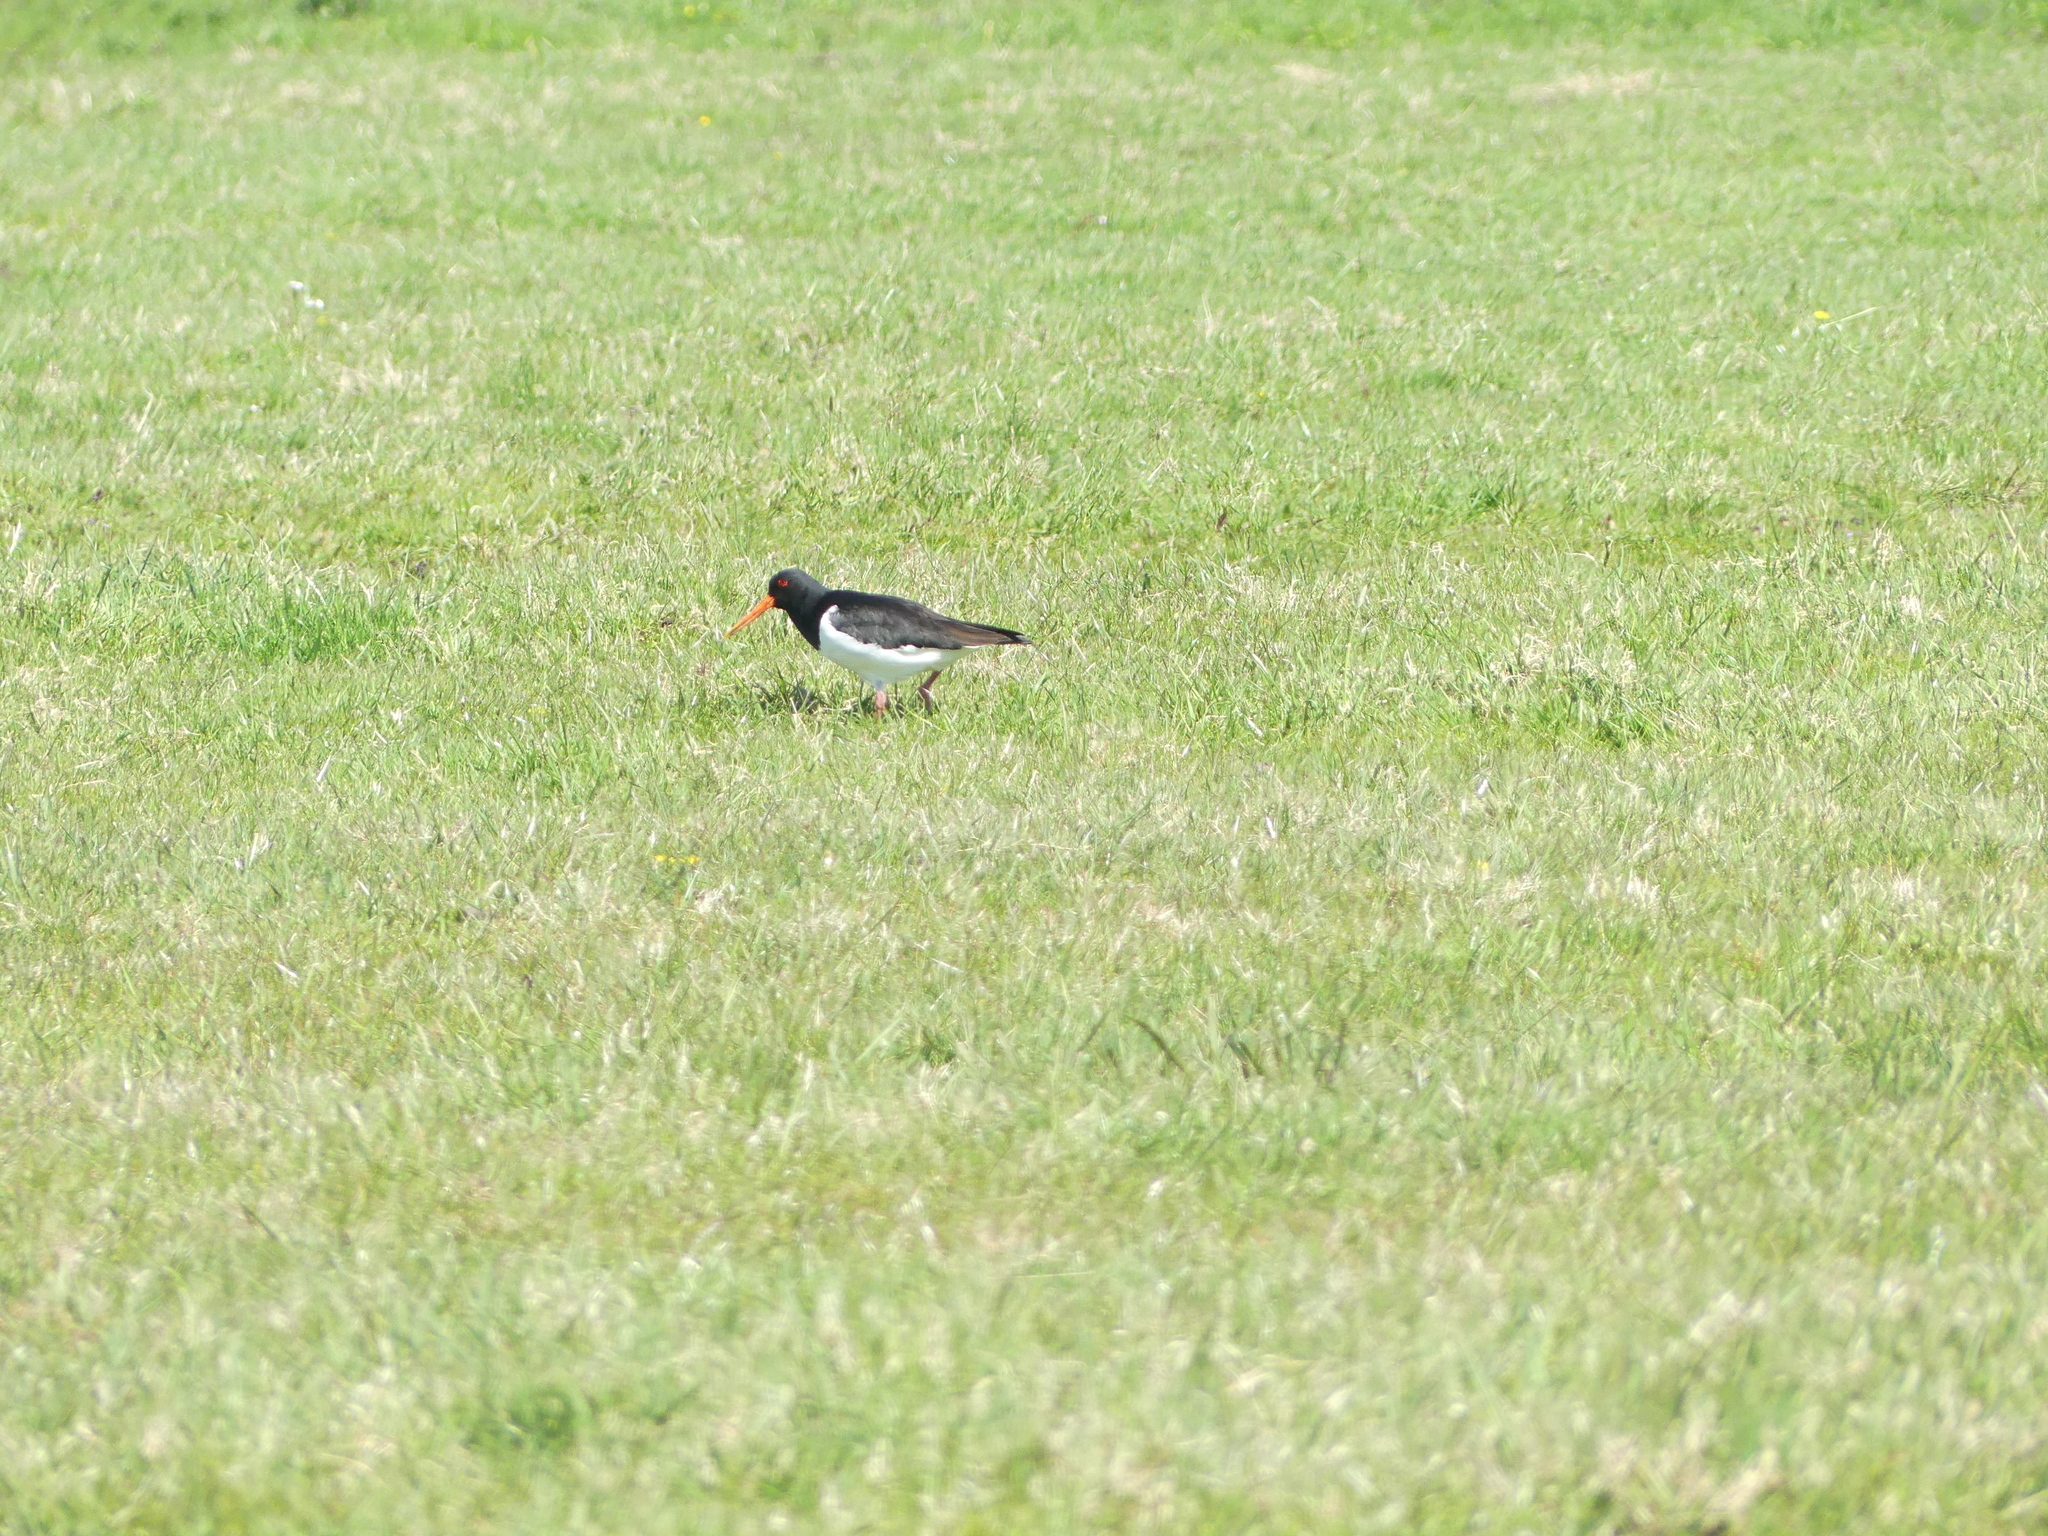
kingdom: Animalia
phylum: Chordata
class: Aves
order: Charadriiformes
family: Haematopodidae
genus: Haematopus
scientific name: Haematopus ostralegus
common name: Eurasian oystercatcher
